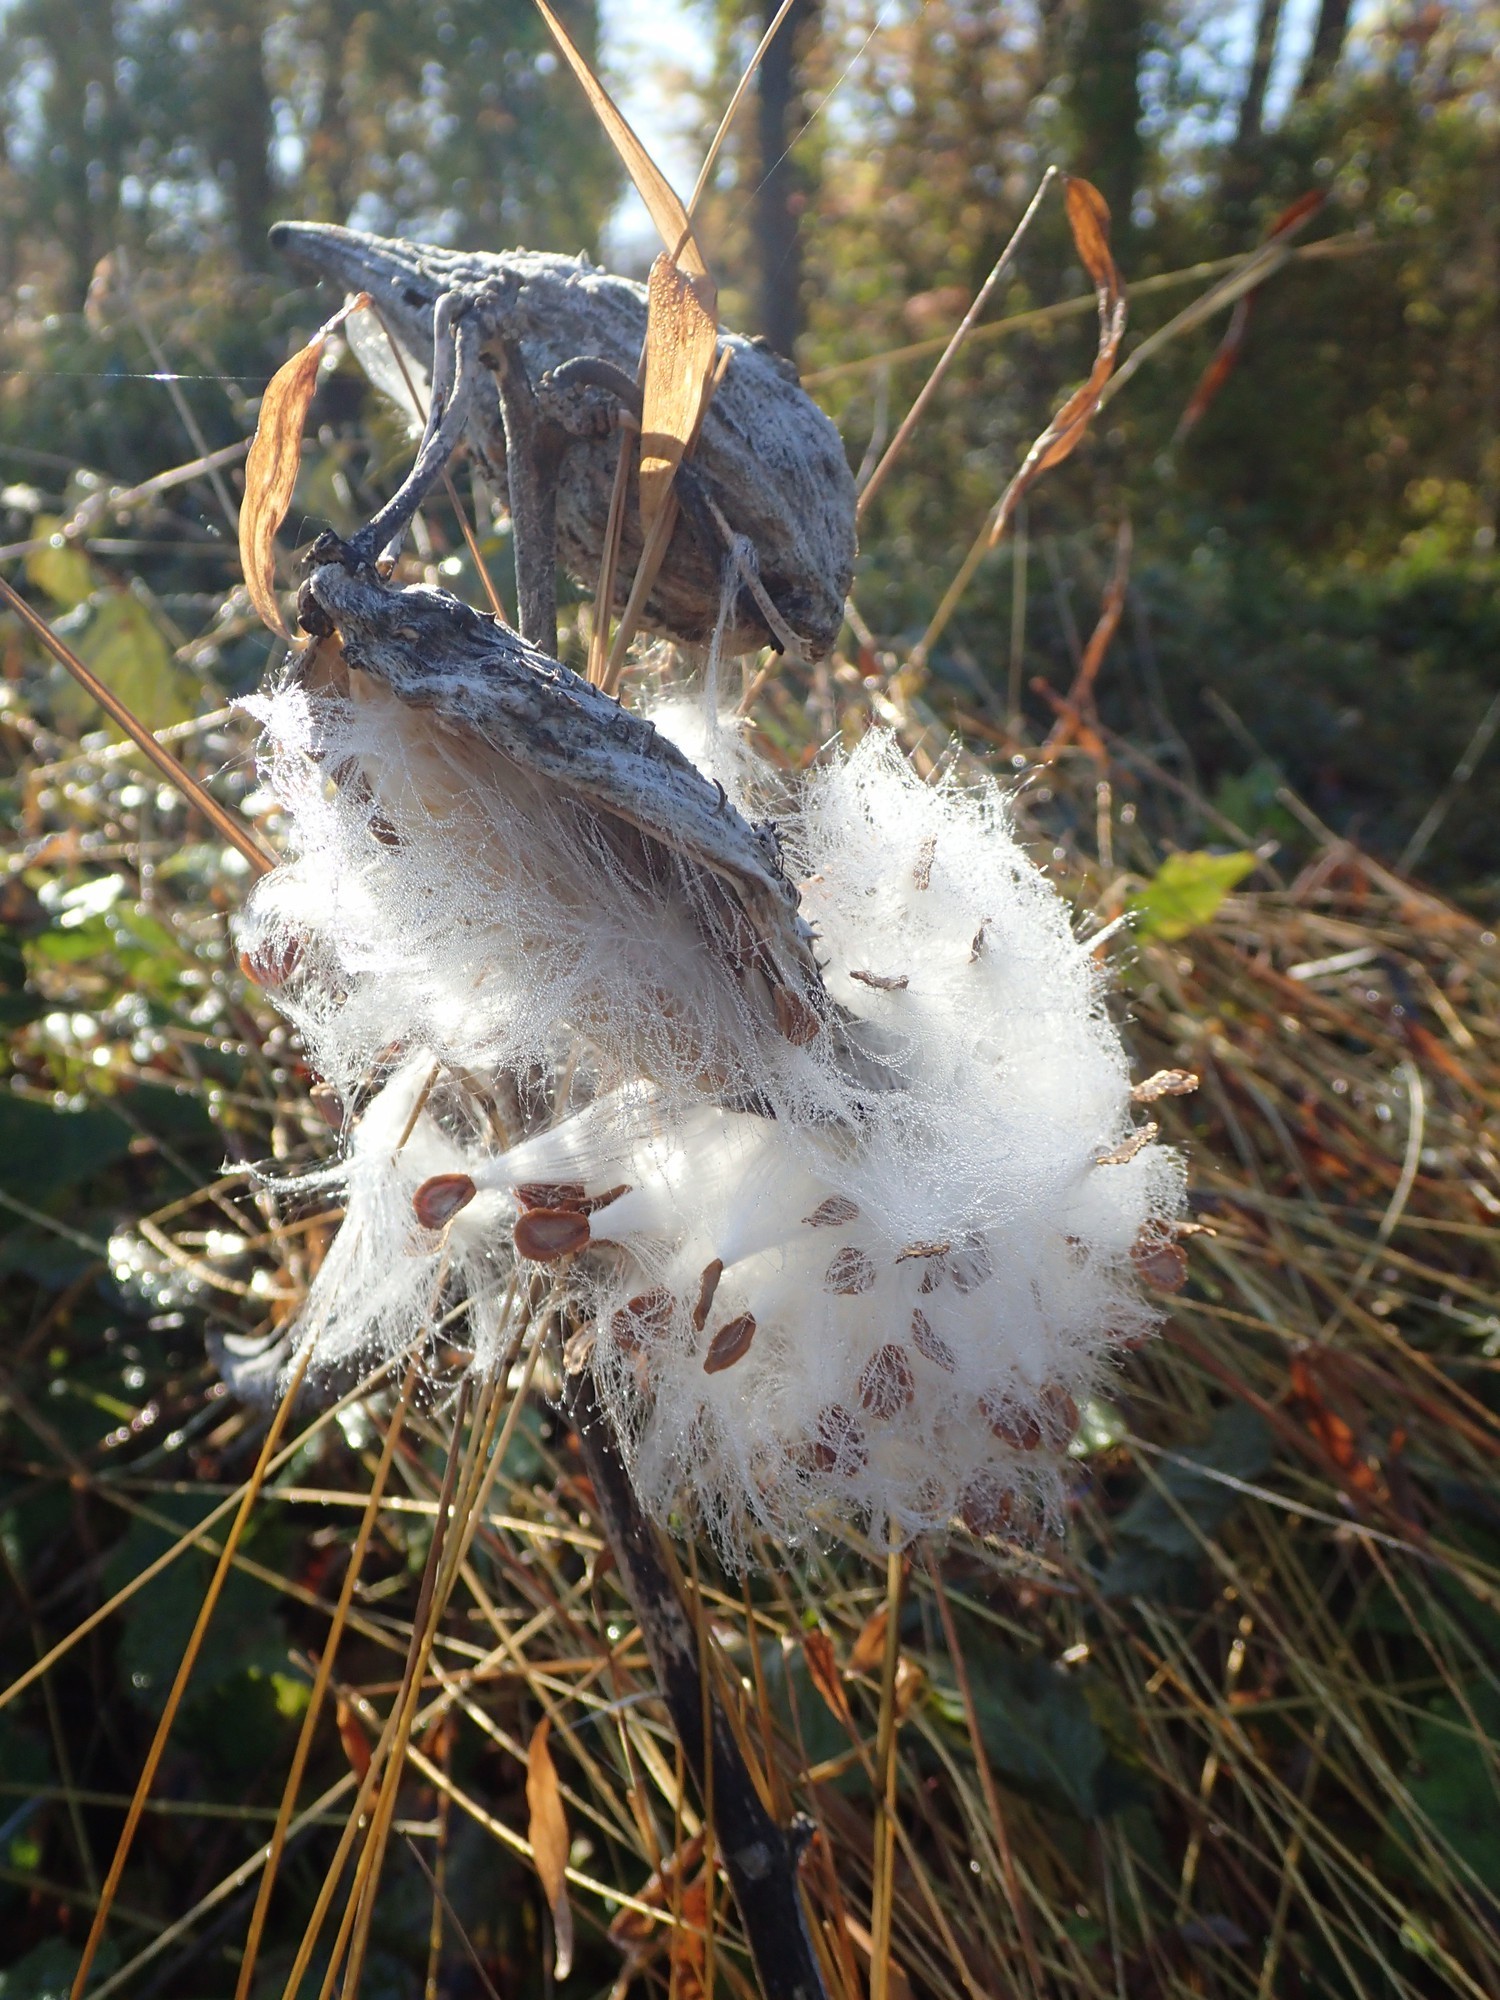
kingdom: Plantae
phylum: Tracheophyta
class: Magnoliopsida
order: Gentianales
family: Apocynaceae
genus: Asclepias
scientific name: Asclepias syriaca
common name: Common milkweed
